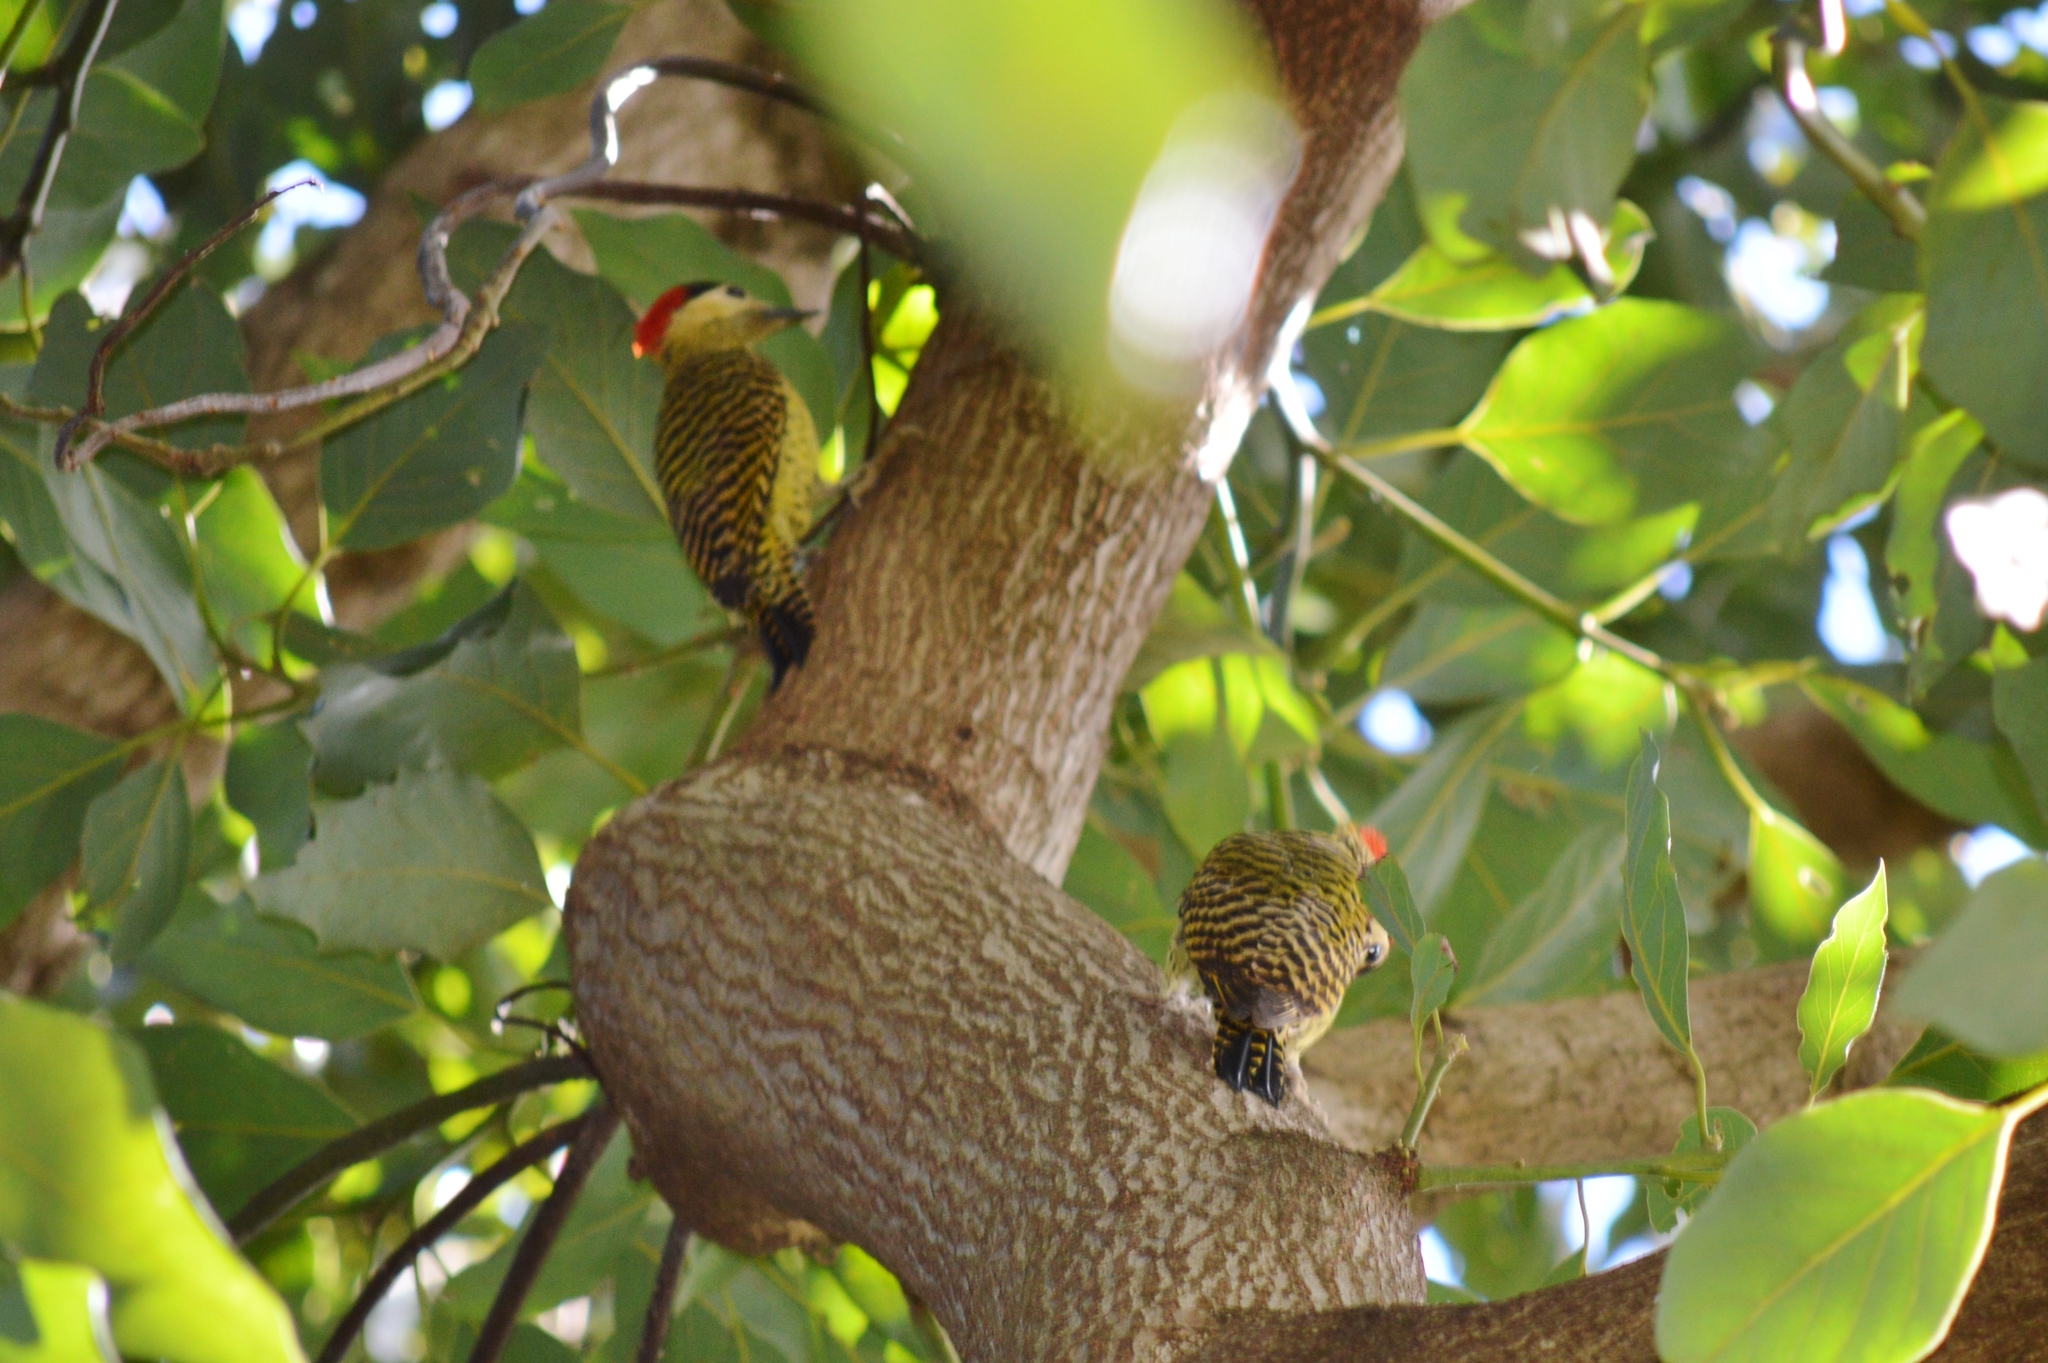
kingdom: Animalia
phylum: Chordata
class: Aves
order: Piciformes
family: Picidae
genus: Colaptes
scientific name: Colaptes melanochloros
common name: Green-barred woodpecker
